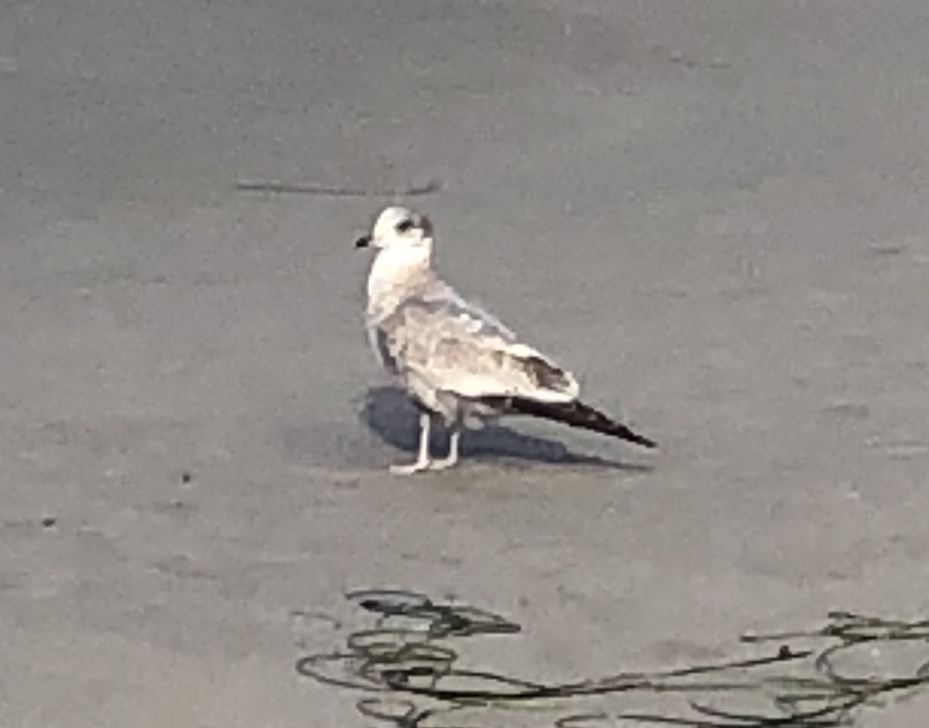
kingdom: Animalia
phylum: Chordata
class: Aves
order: Charadriiformes
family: Laridae
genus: Larus
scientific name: Larus
